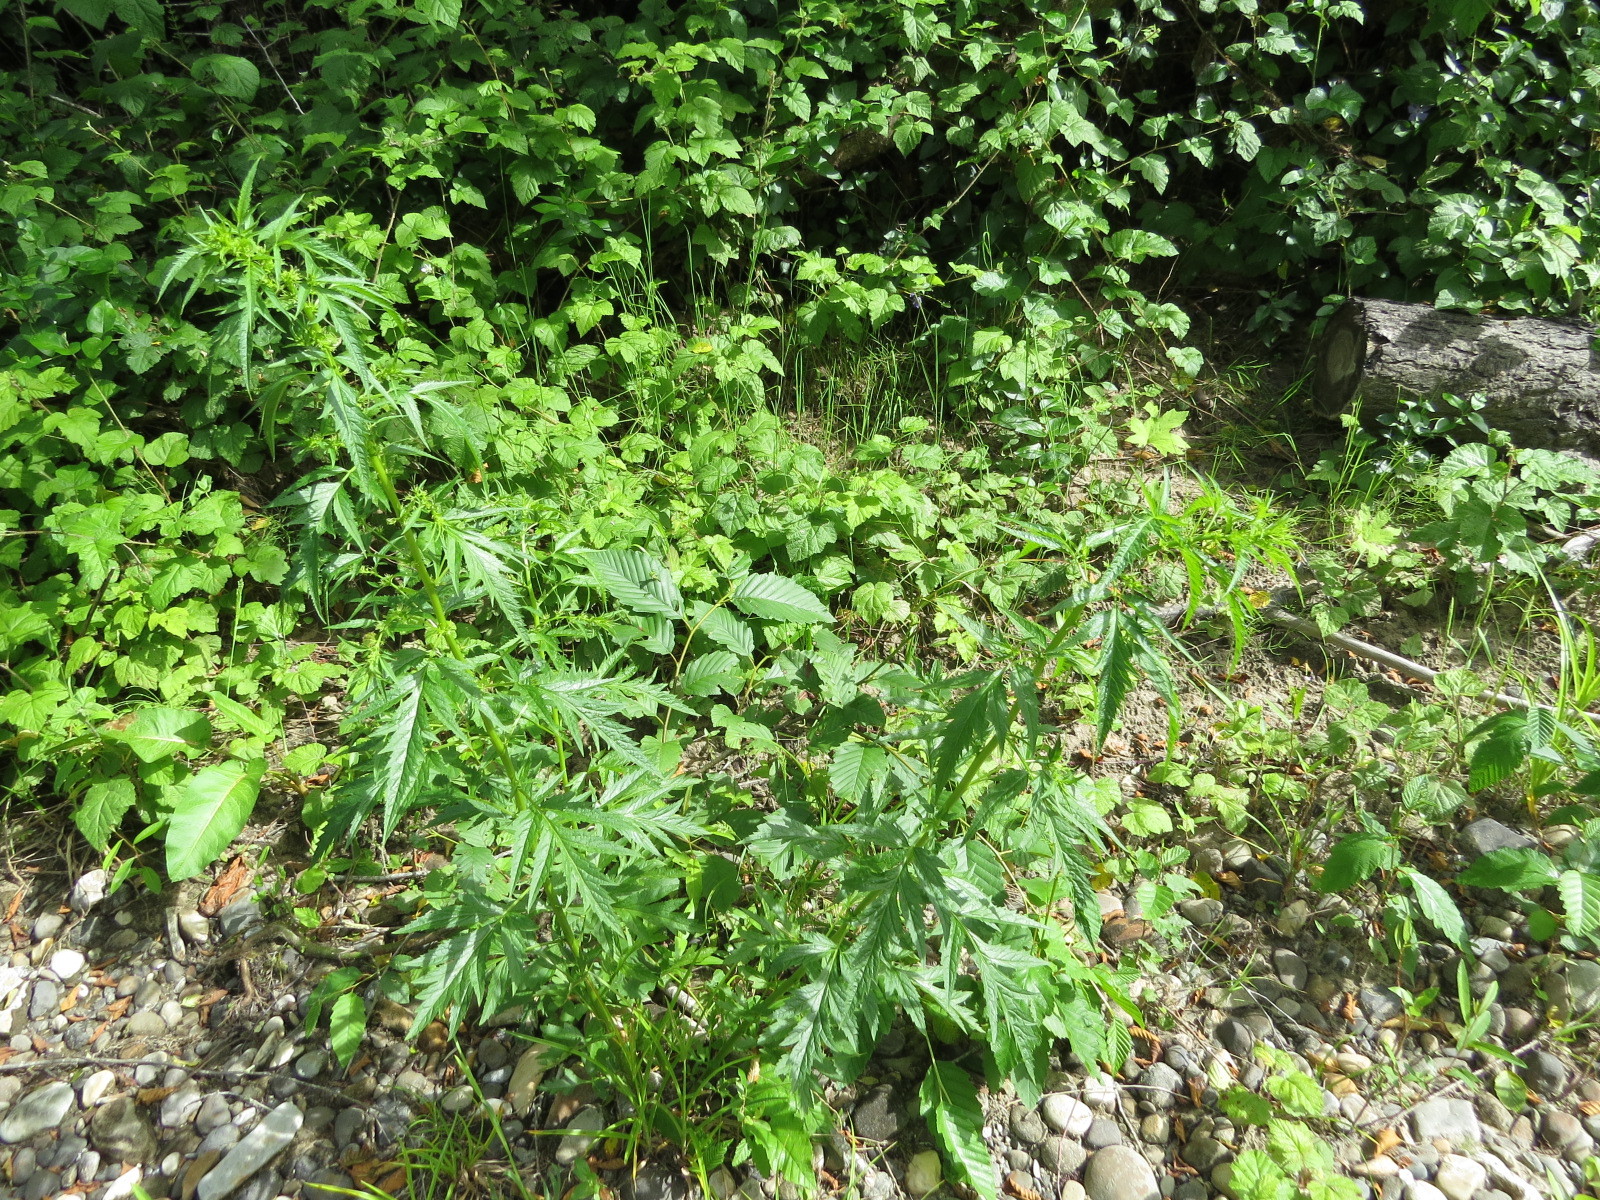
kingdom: Plantae
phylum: Tracheophyta
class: Magnoliopsida
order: Cucurbitales
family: Datiscaceae
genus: Datisca
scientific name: Datisca glomerata
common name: Durango-root
